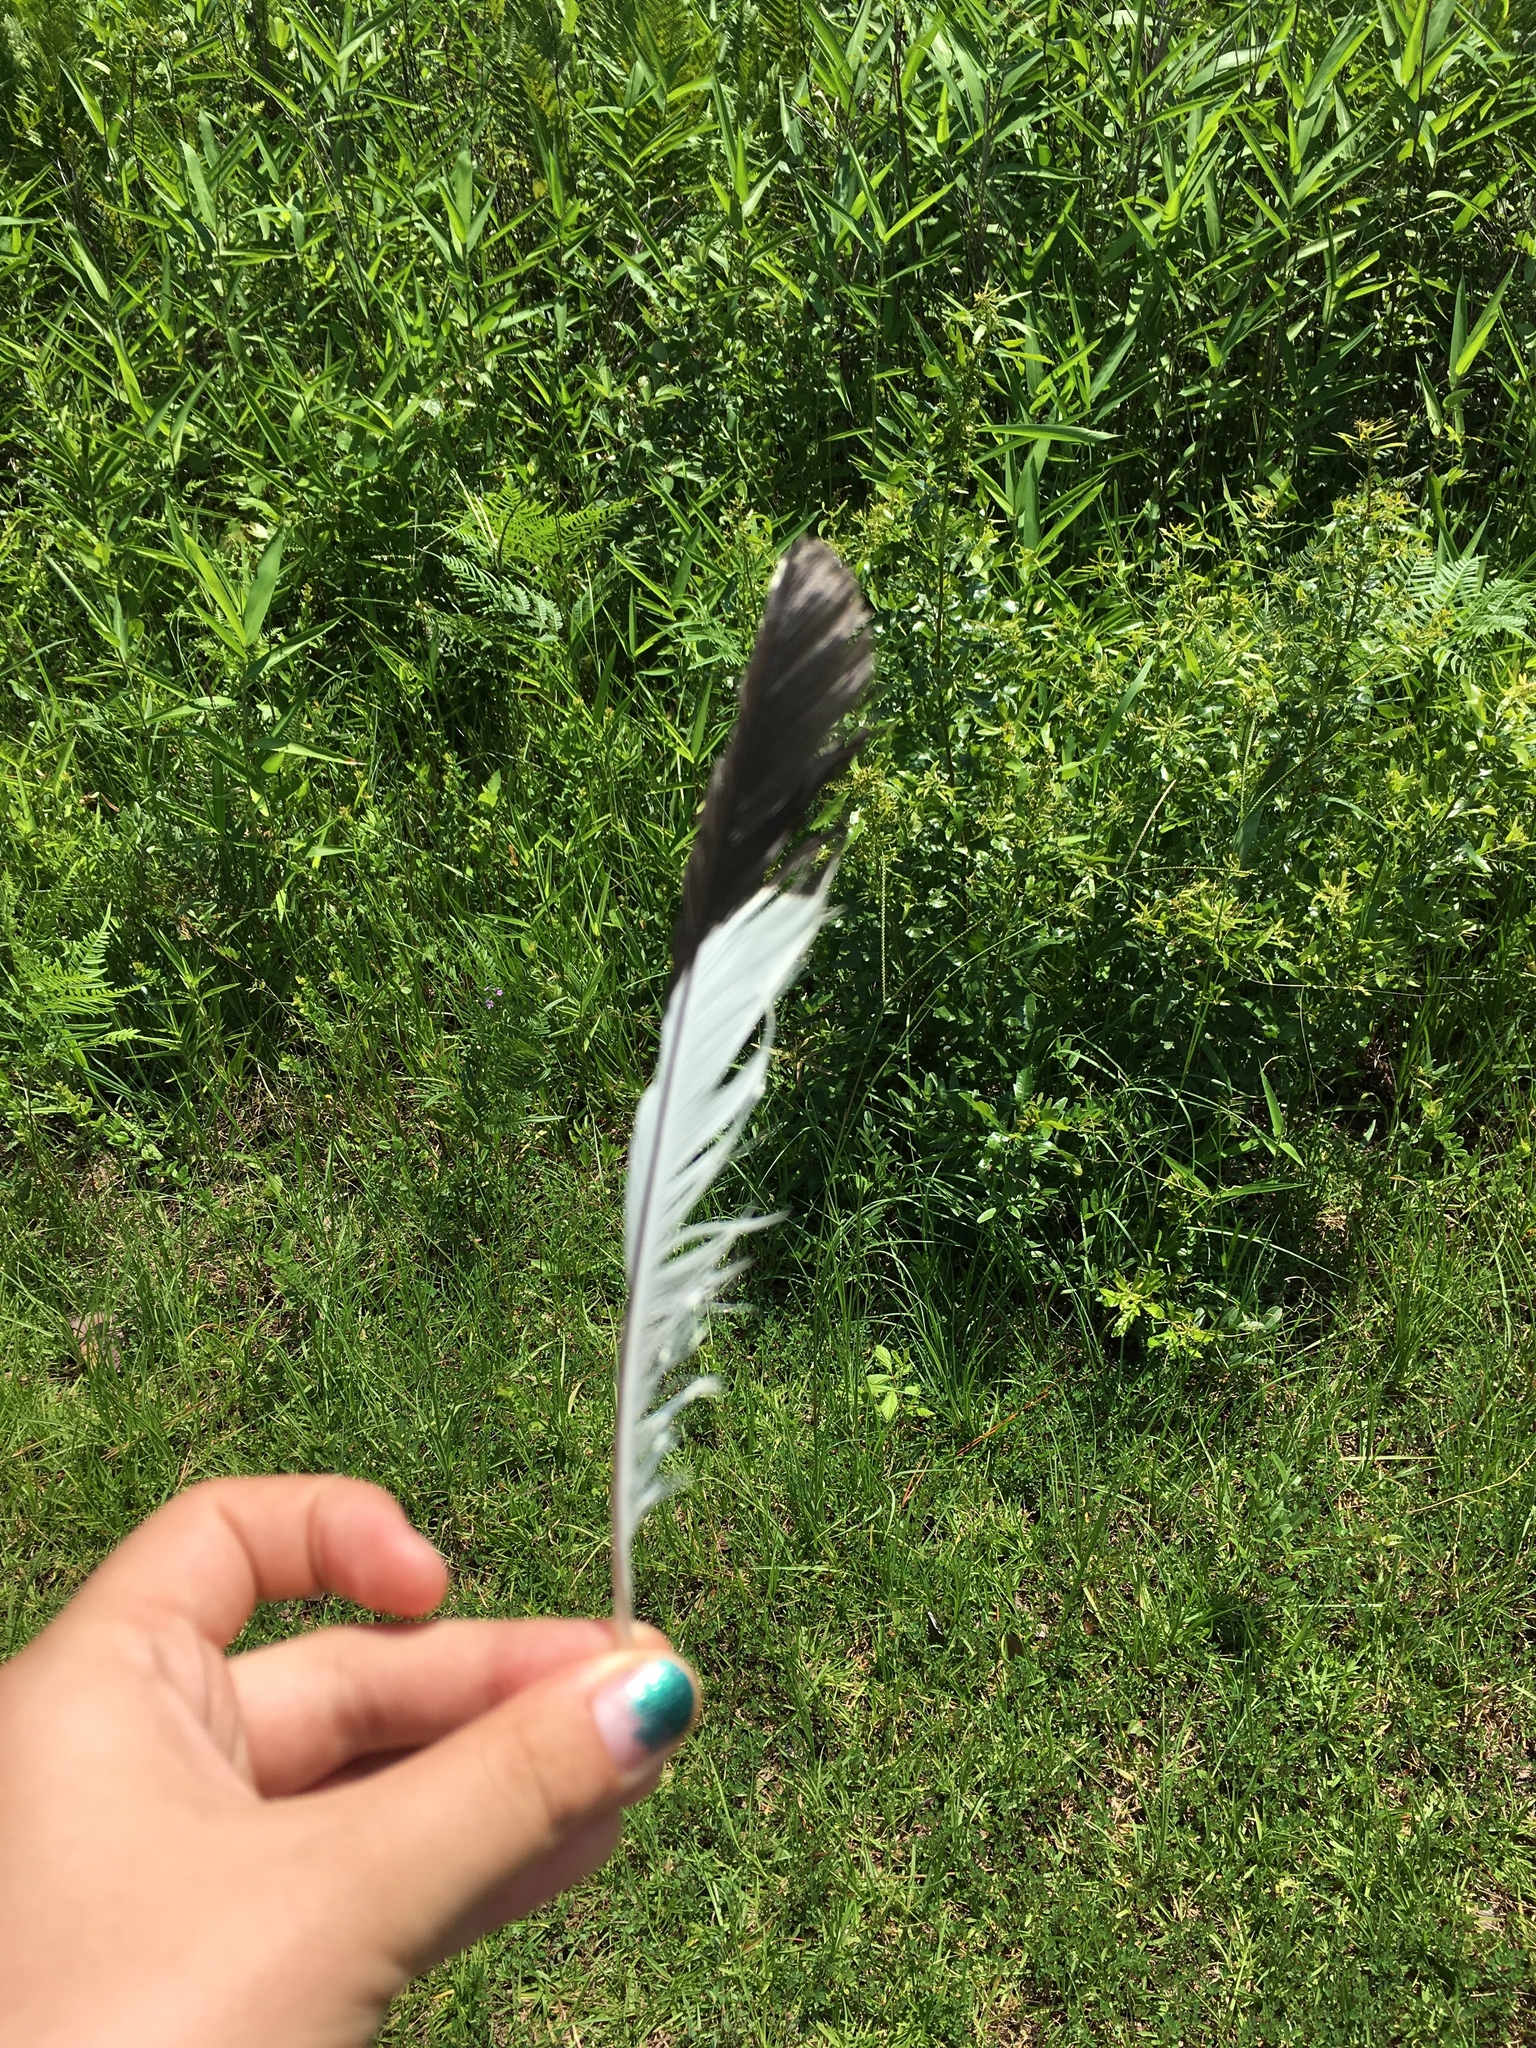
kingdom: Animalia
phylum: Chordata
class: Aves
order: Piciformes
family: Picidae
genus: Dryocopus
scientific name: Dryocopus pileatus
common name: Pileated woodpecker
